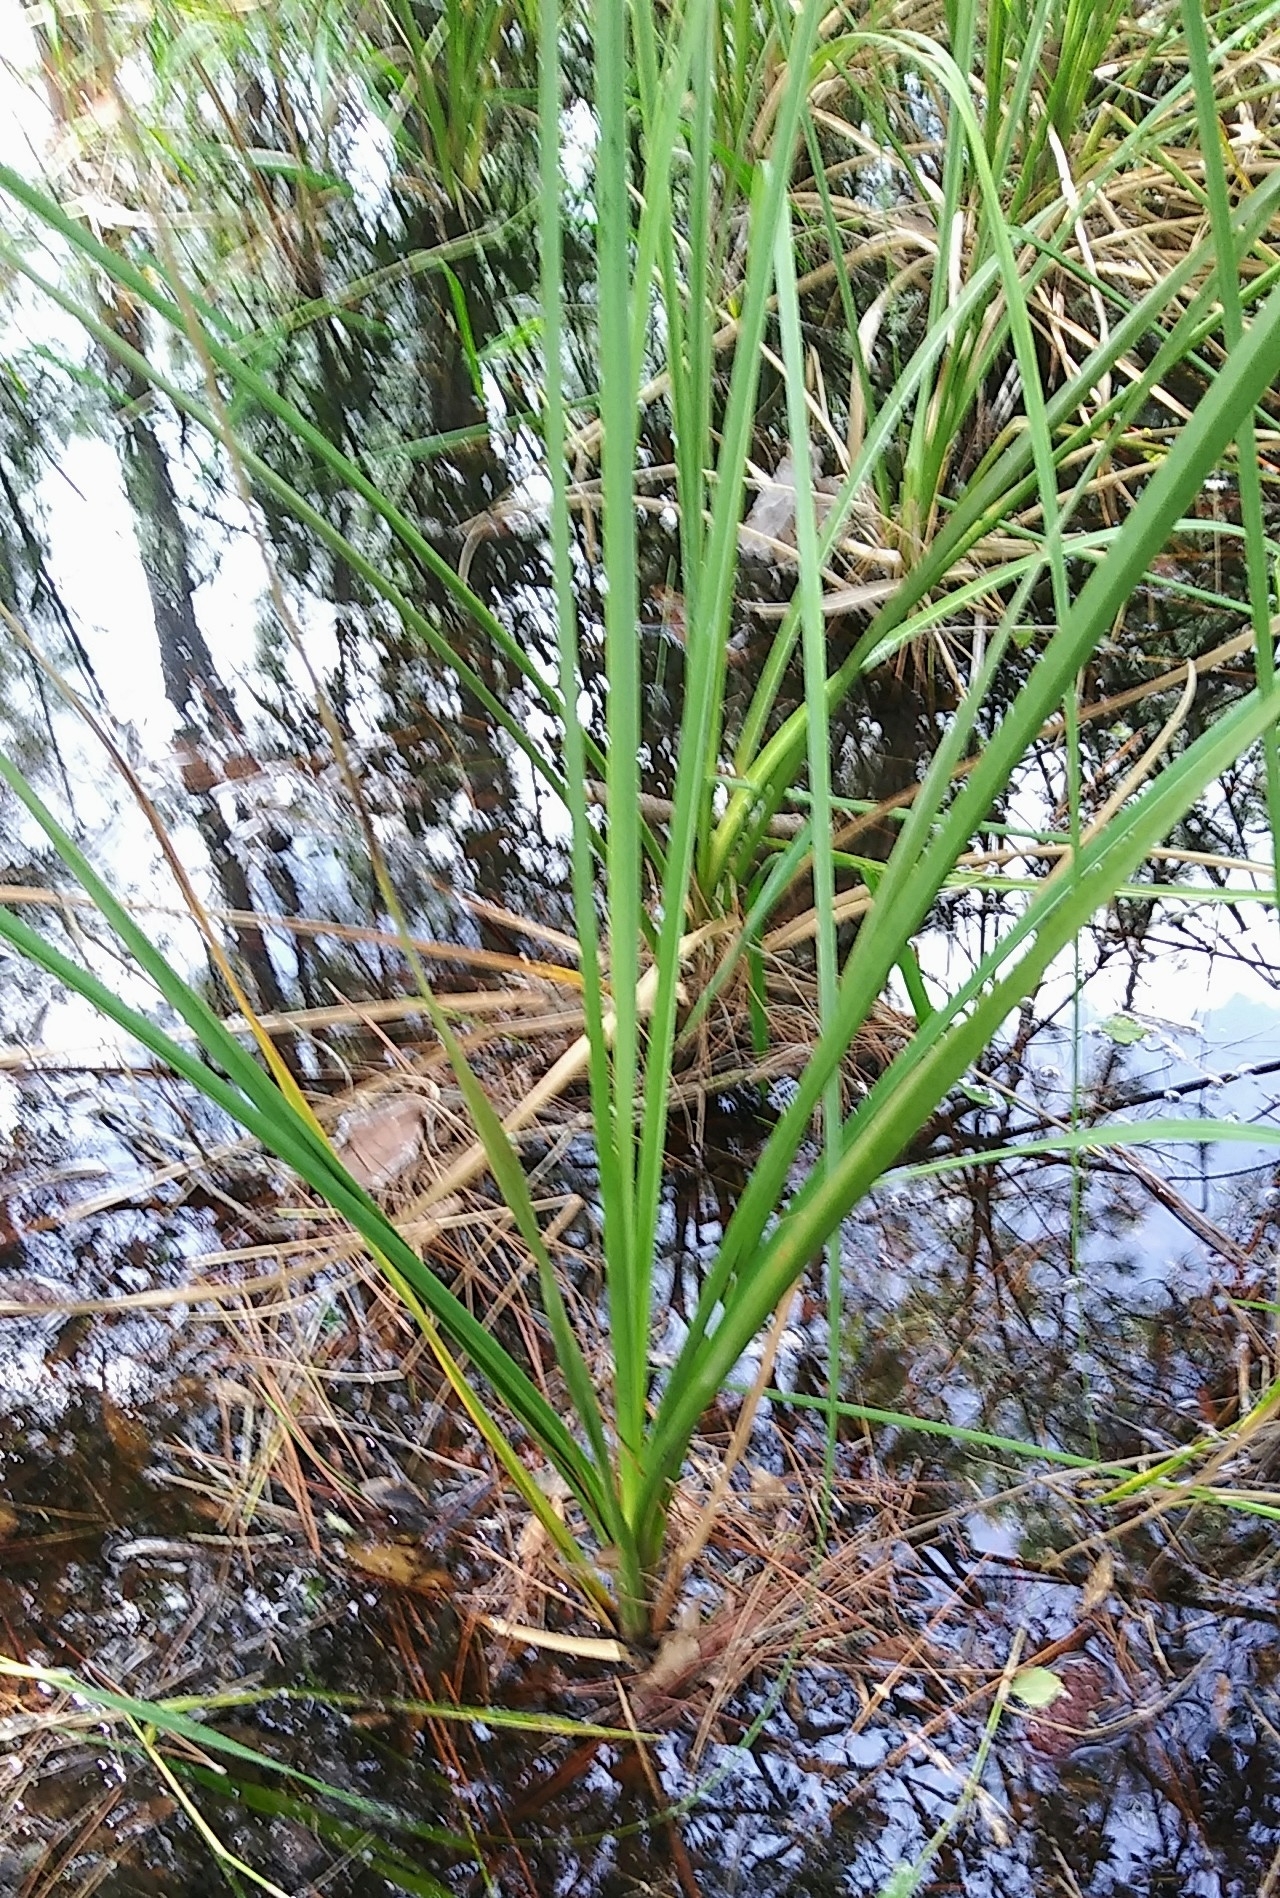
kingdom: Plantae
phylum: Tracheophyta
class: Liliopsida
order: Poales
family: Cyperaceae
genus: Cladium
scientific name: Cladium mariscus
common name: Great fen-sedge
